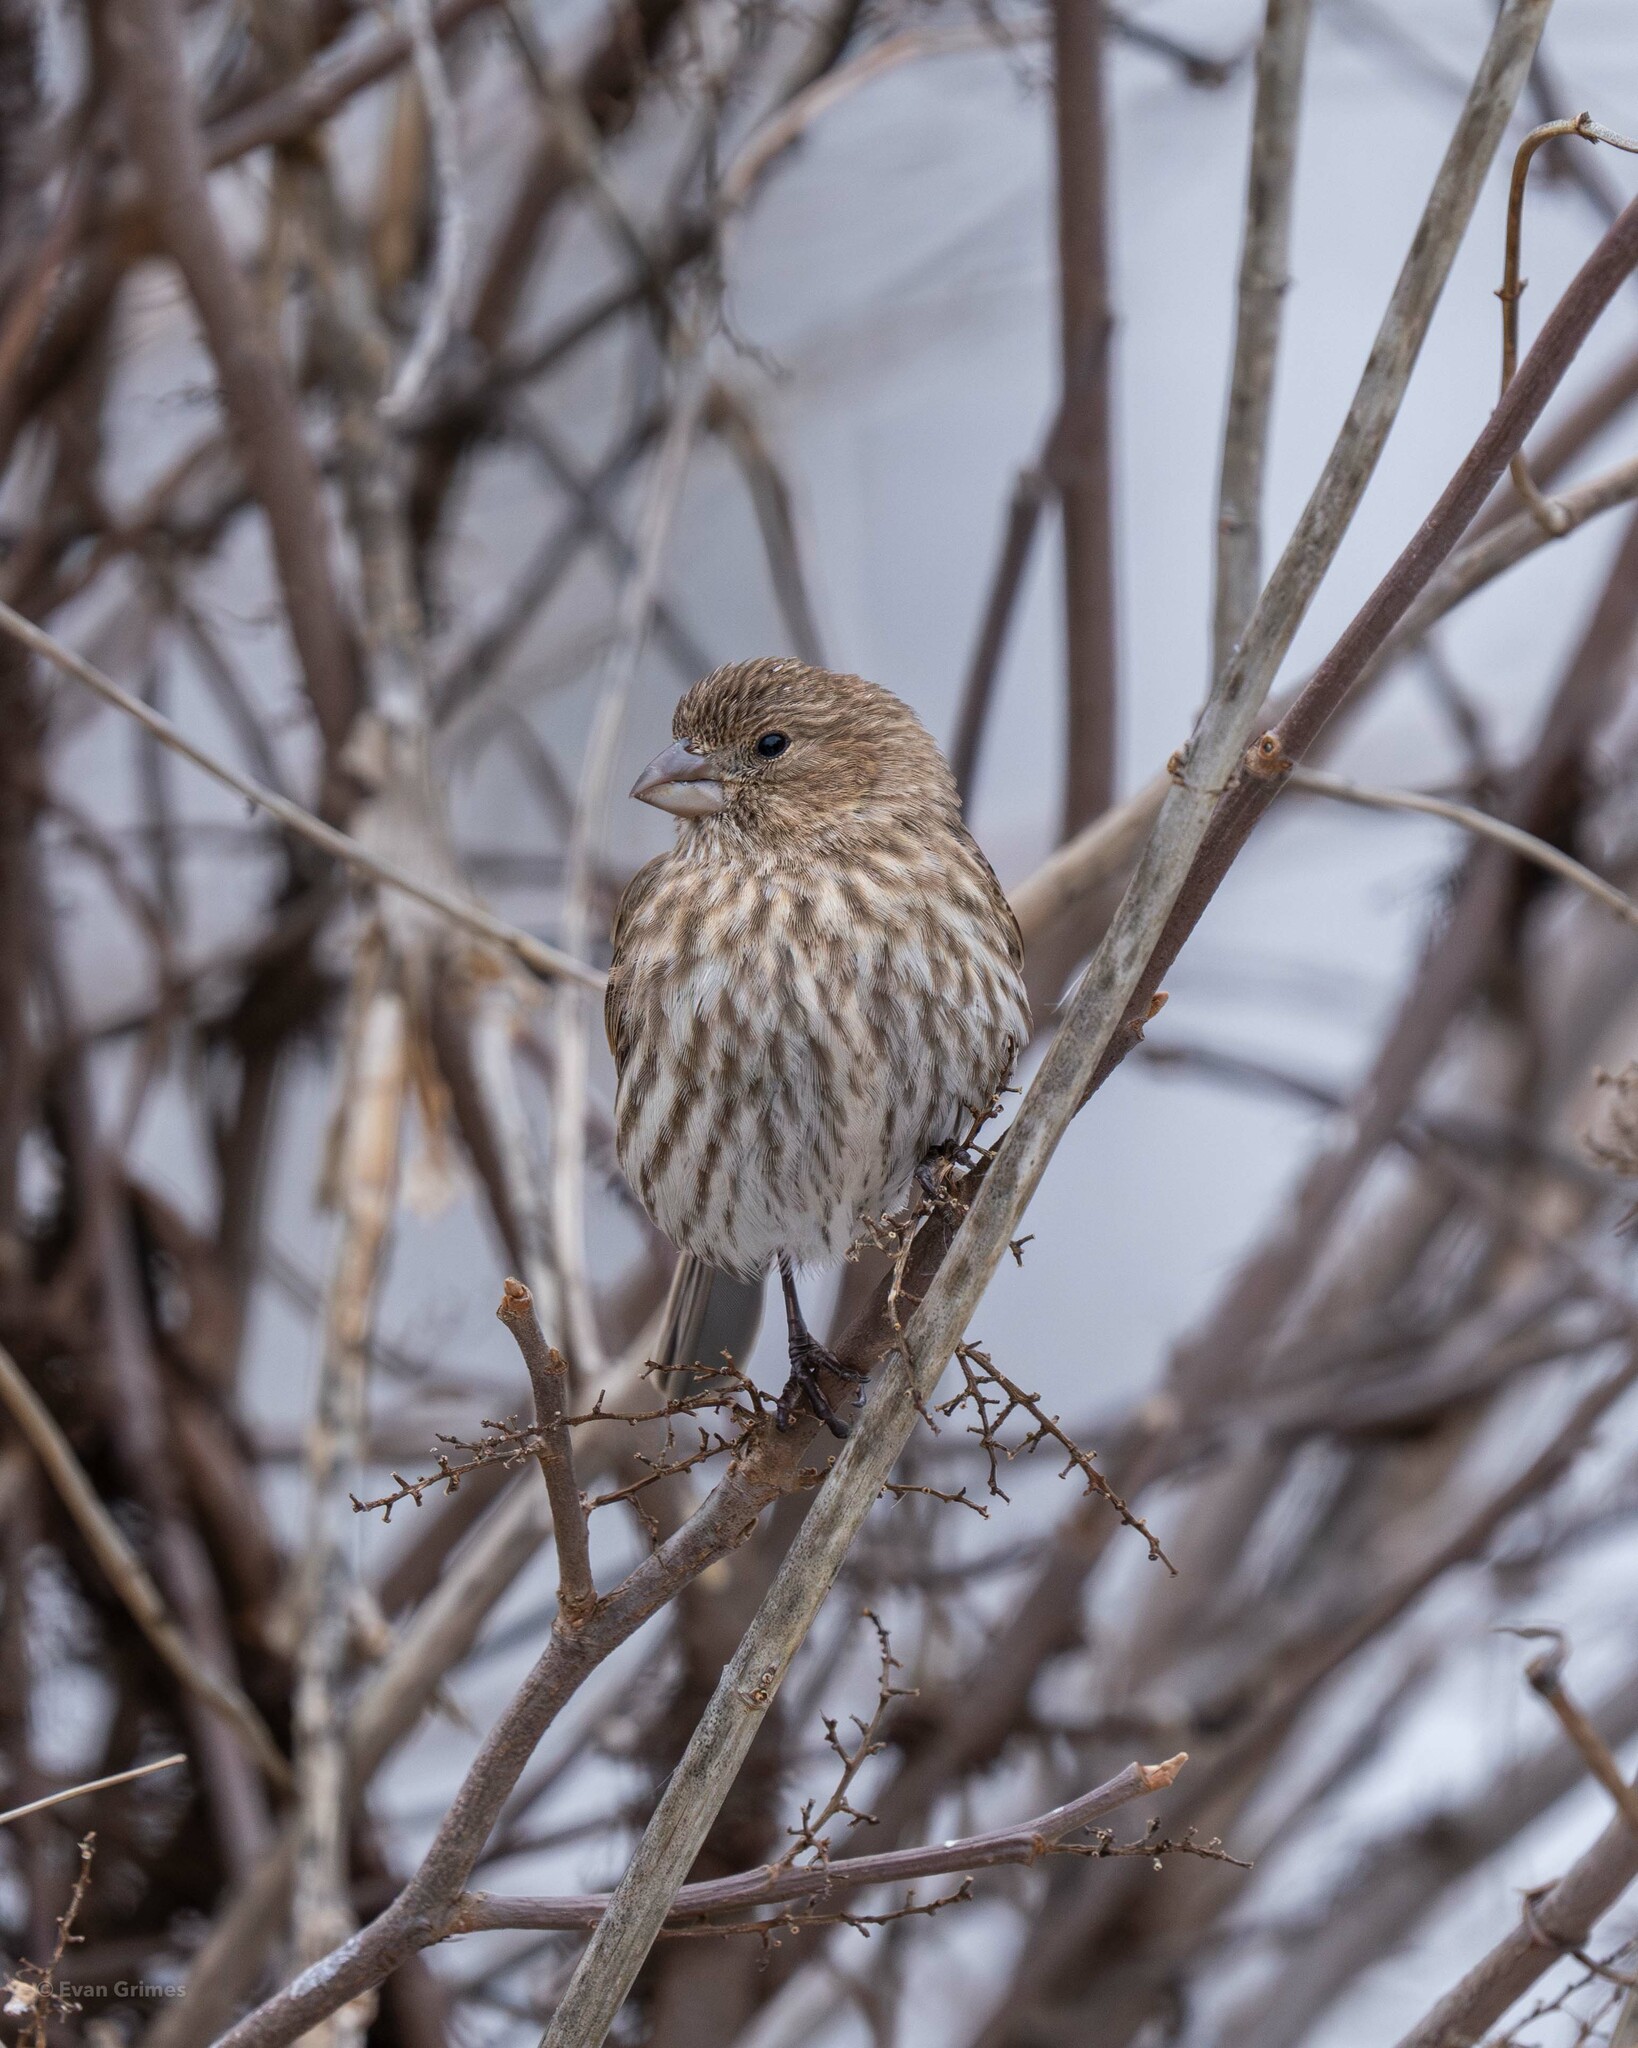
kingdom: Animalia
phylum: Chordata
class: Aves
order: Passeriformes
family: Fringillidae
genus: Haemorhous
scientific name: Haemorhous mexicanus
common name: House finch
